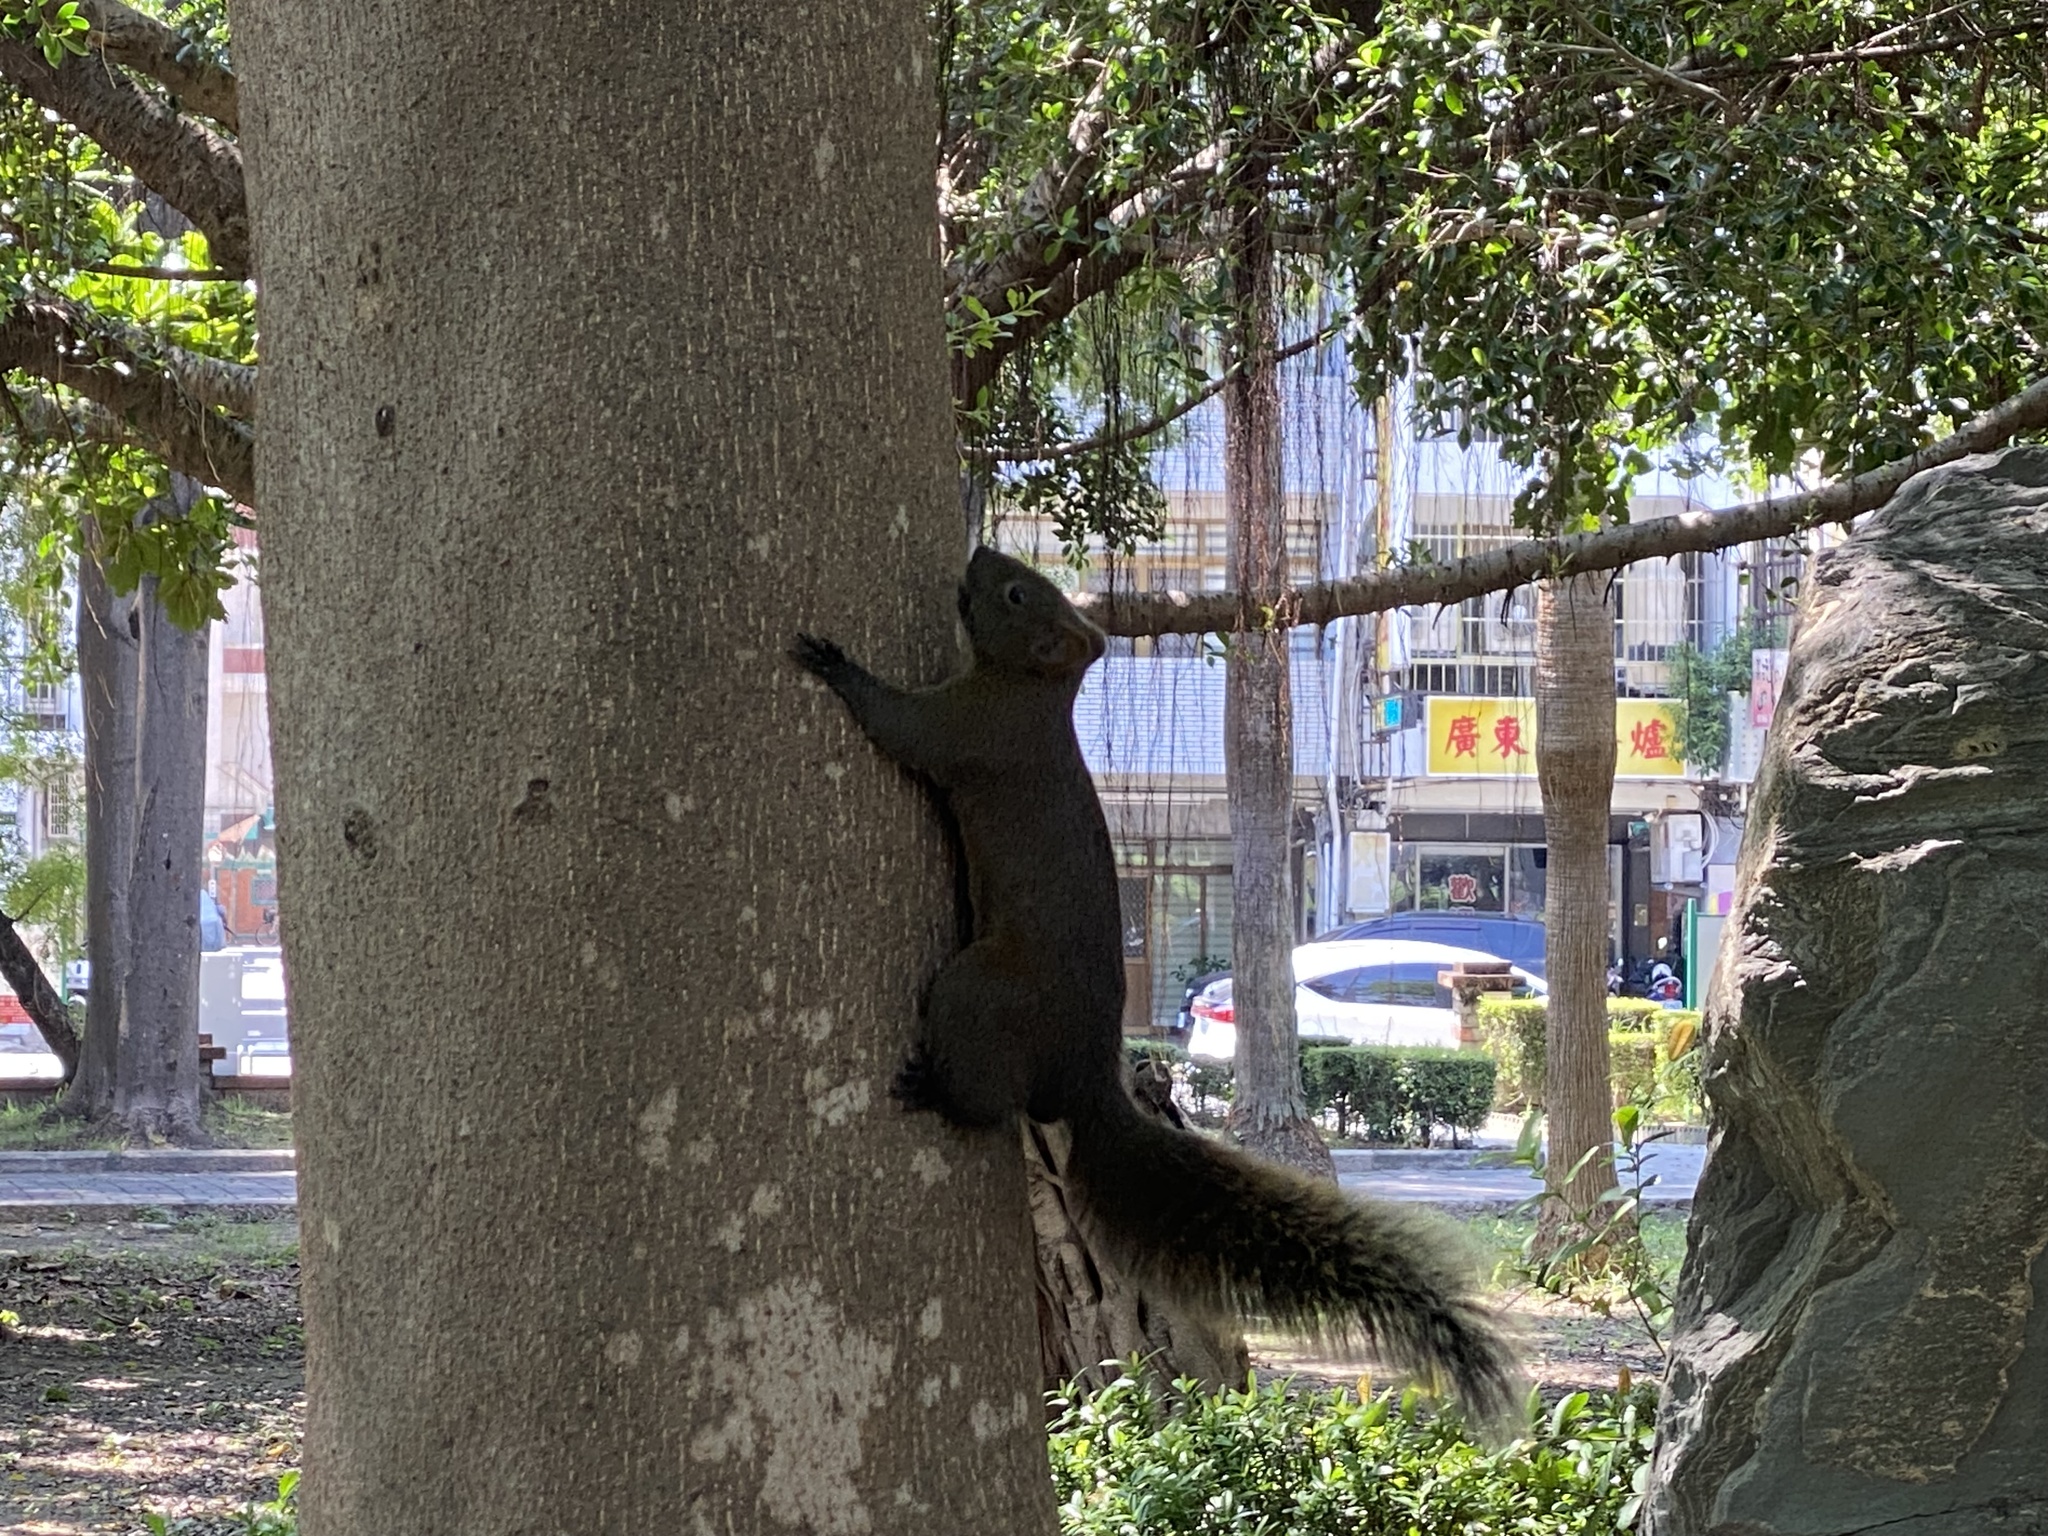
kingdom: Animalia
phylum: Chordata
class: Mammalia
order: Rodentia
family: Sciuridae
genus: Callosciurus
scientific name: Callosciurus erythraeus
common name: Pallas's squirrel
